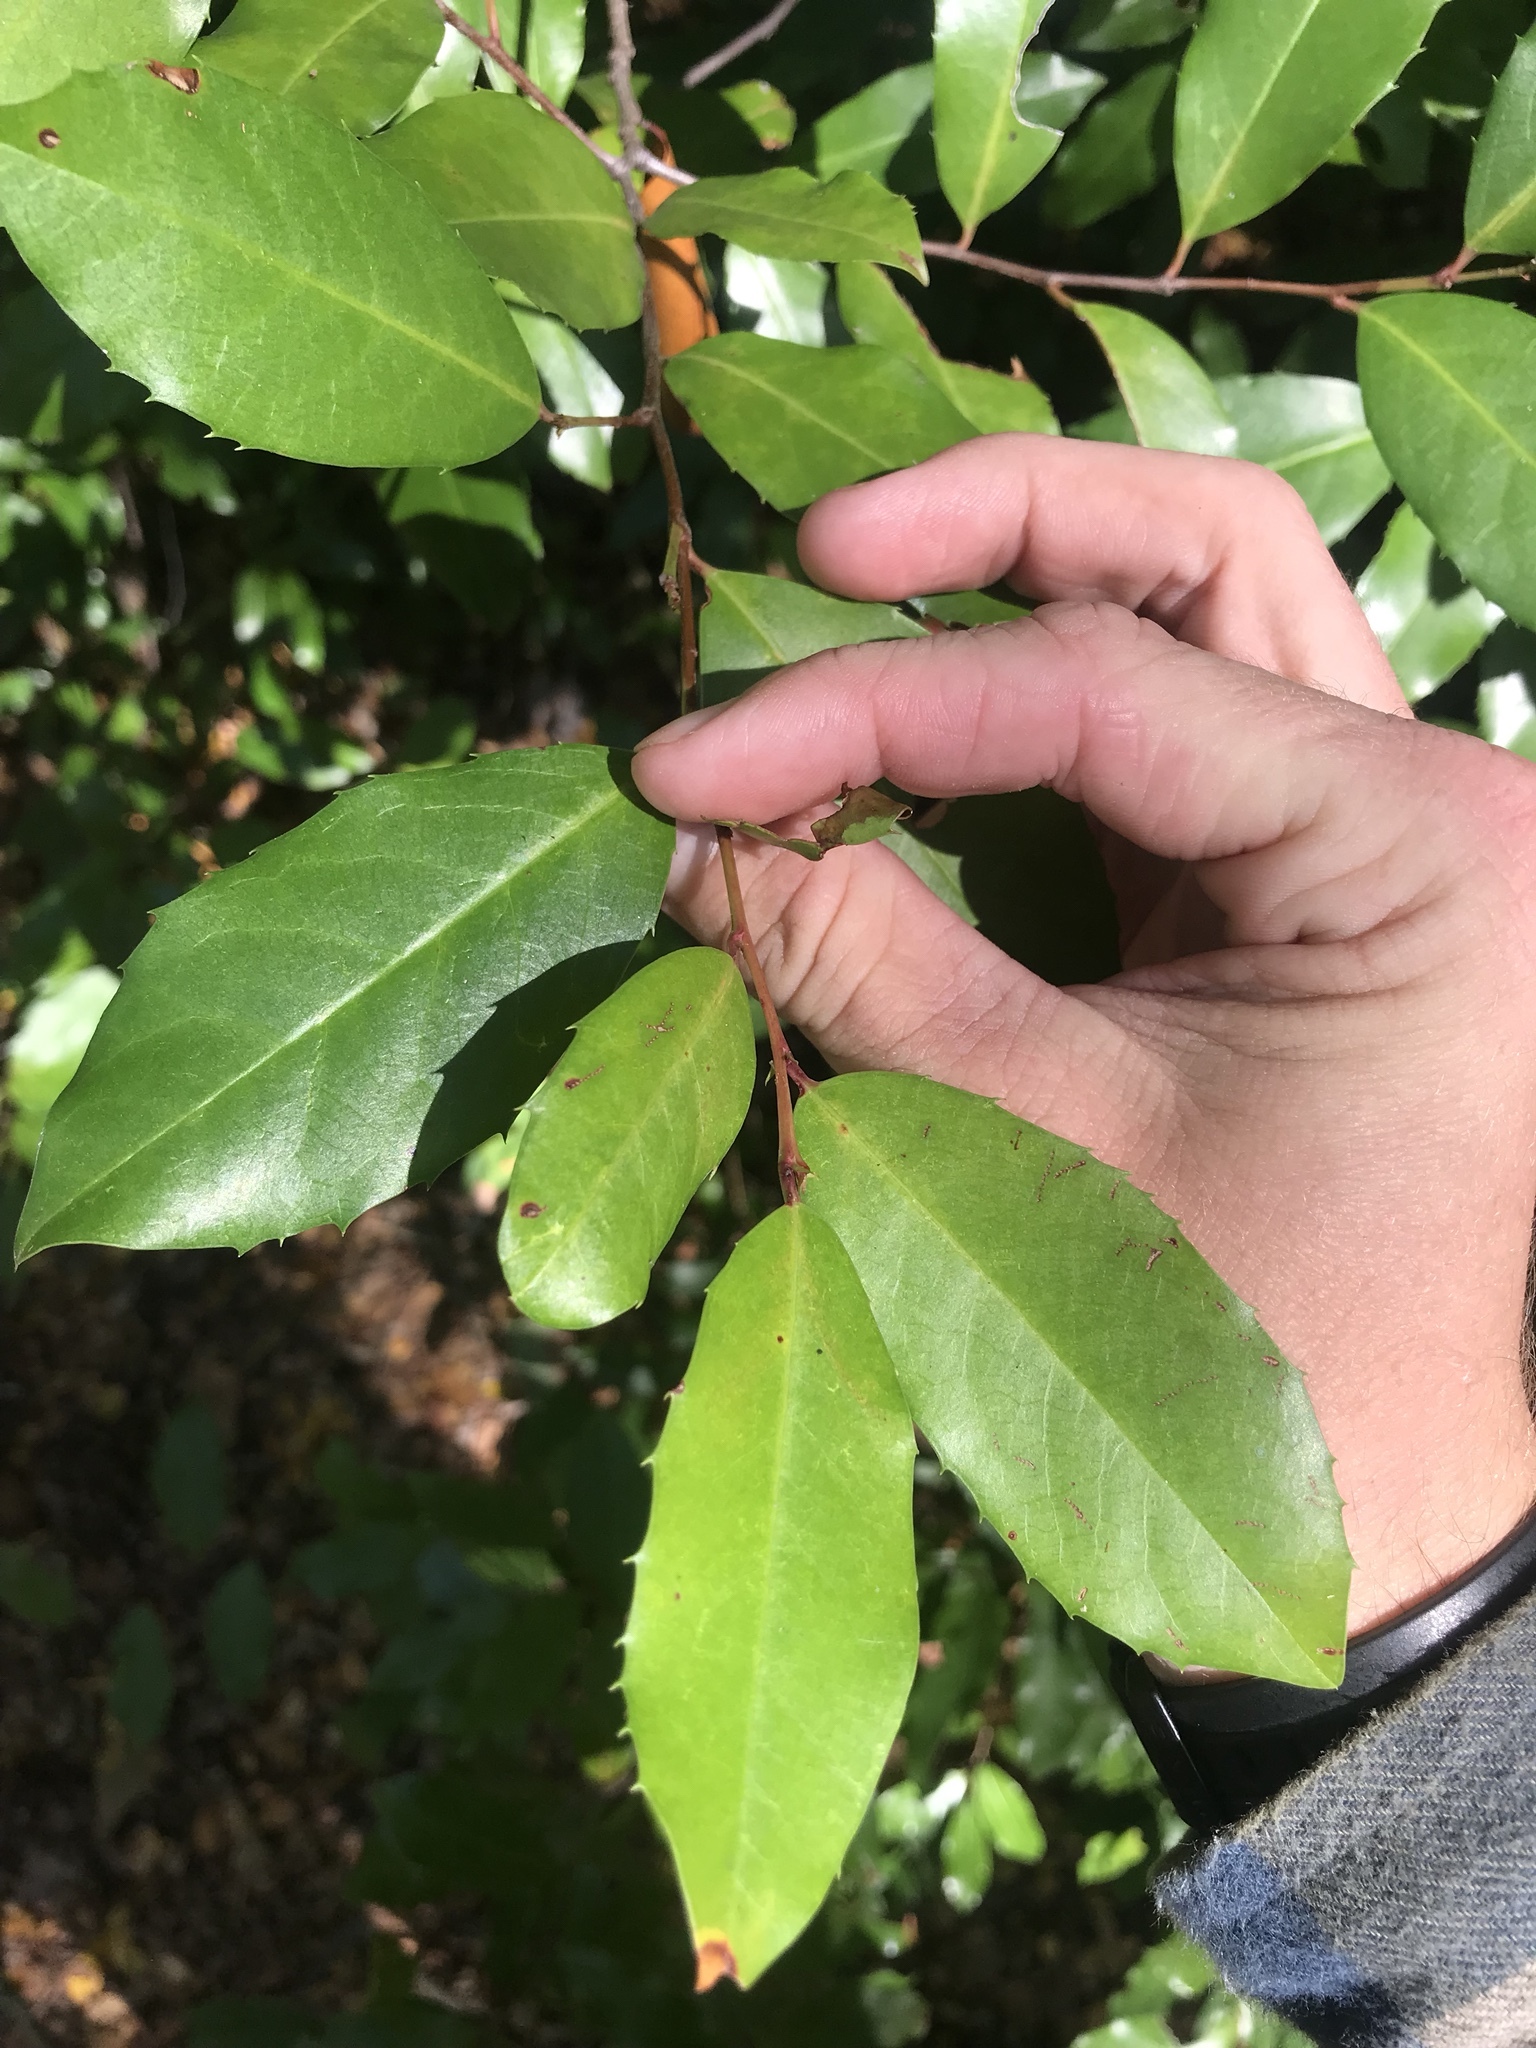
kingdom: Plantae
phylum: Tracheophyta
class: Magnoliopsida
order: Rosales
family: Rosaceae
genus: Prunus
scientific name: Prunus caroliniana
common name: Carolina laurel cherry
